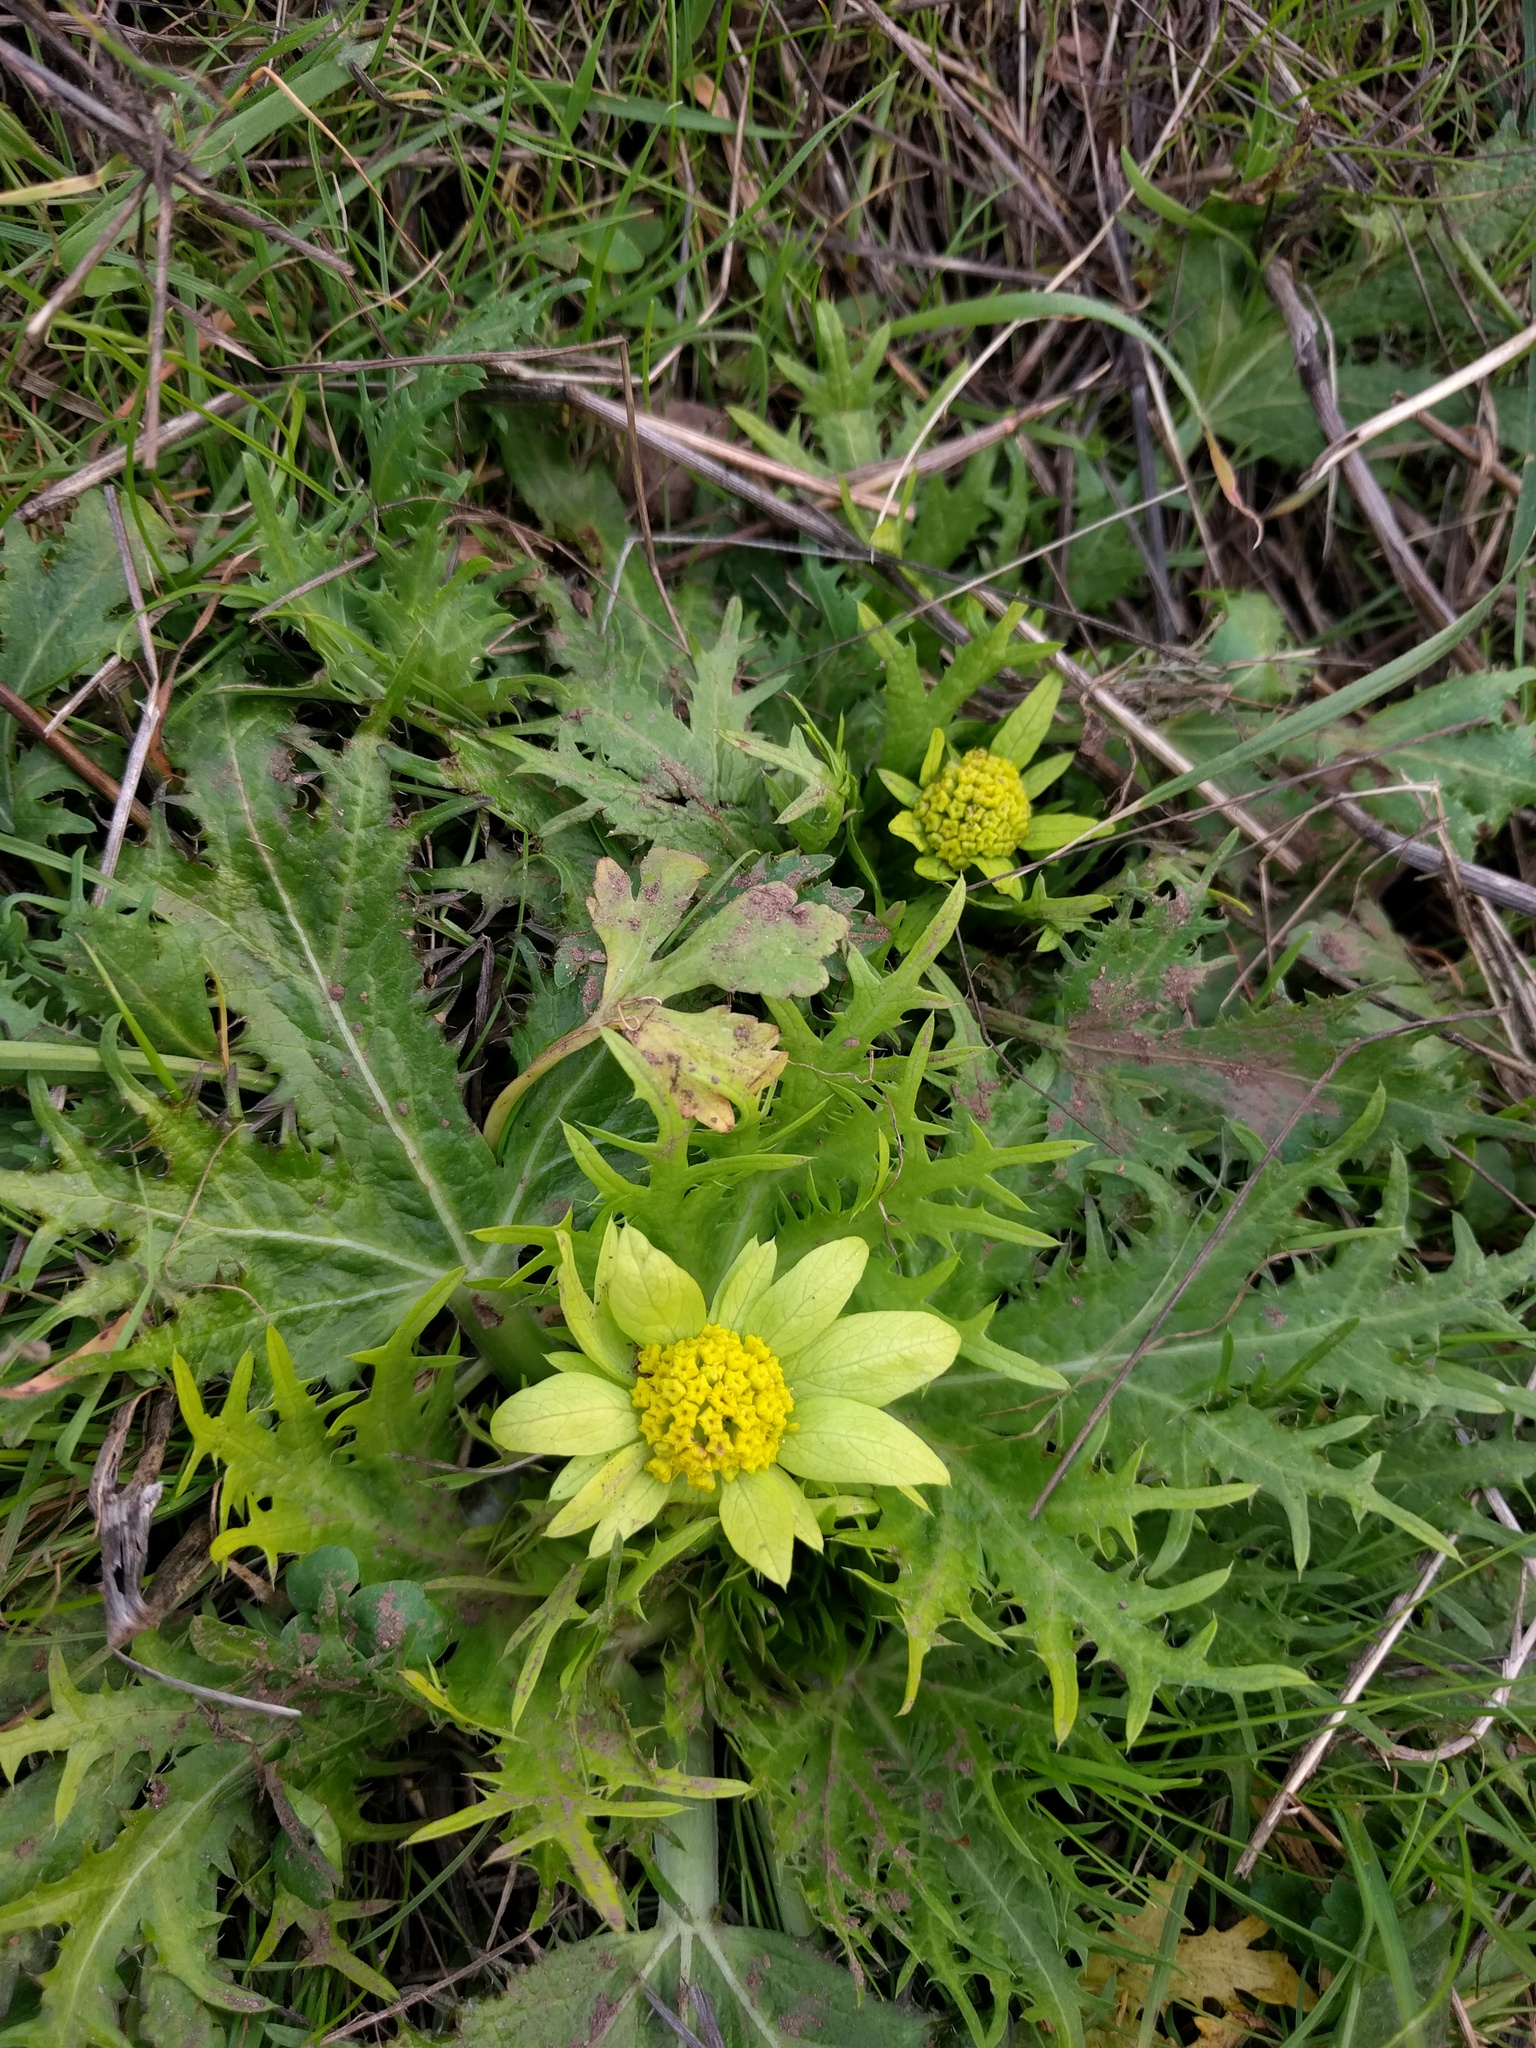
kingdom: Plantae
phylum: Tracheophyta
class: Magnoliopsida
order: Apiales
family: Apiaceae
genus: Sanicula
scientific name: Sanicula arctopoides
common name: Footsteps-of-spring
